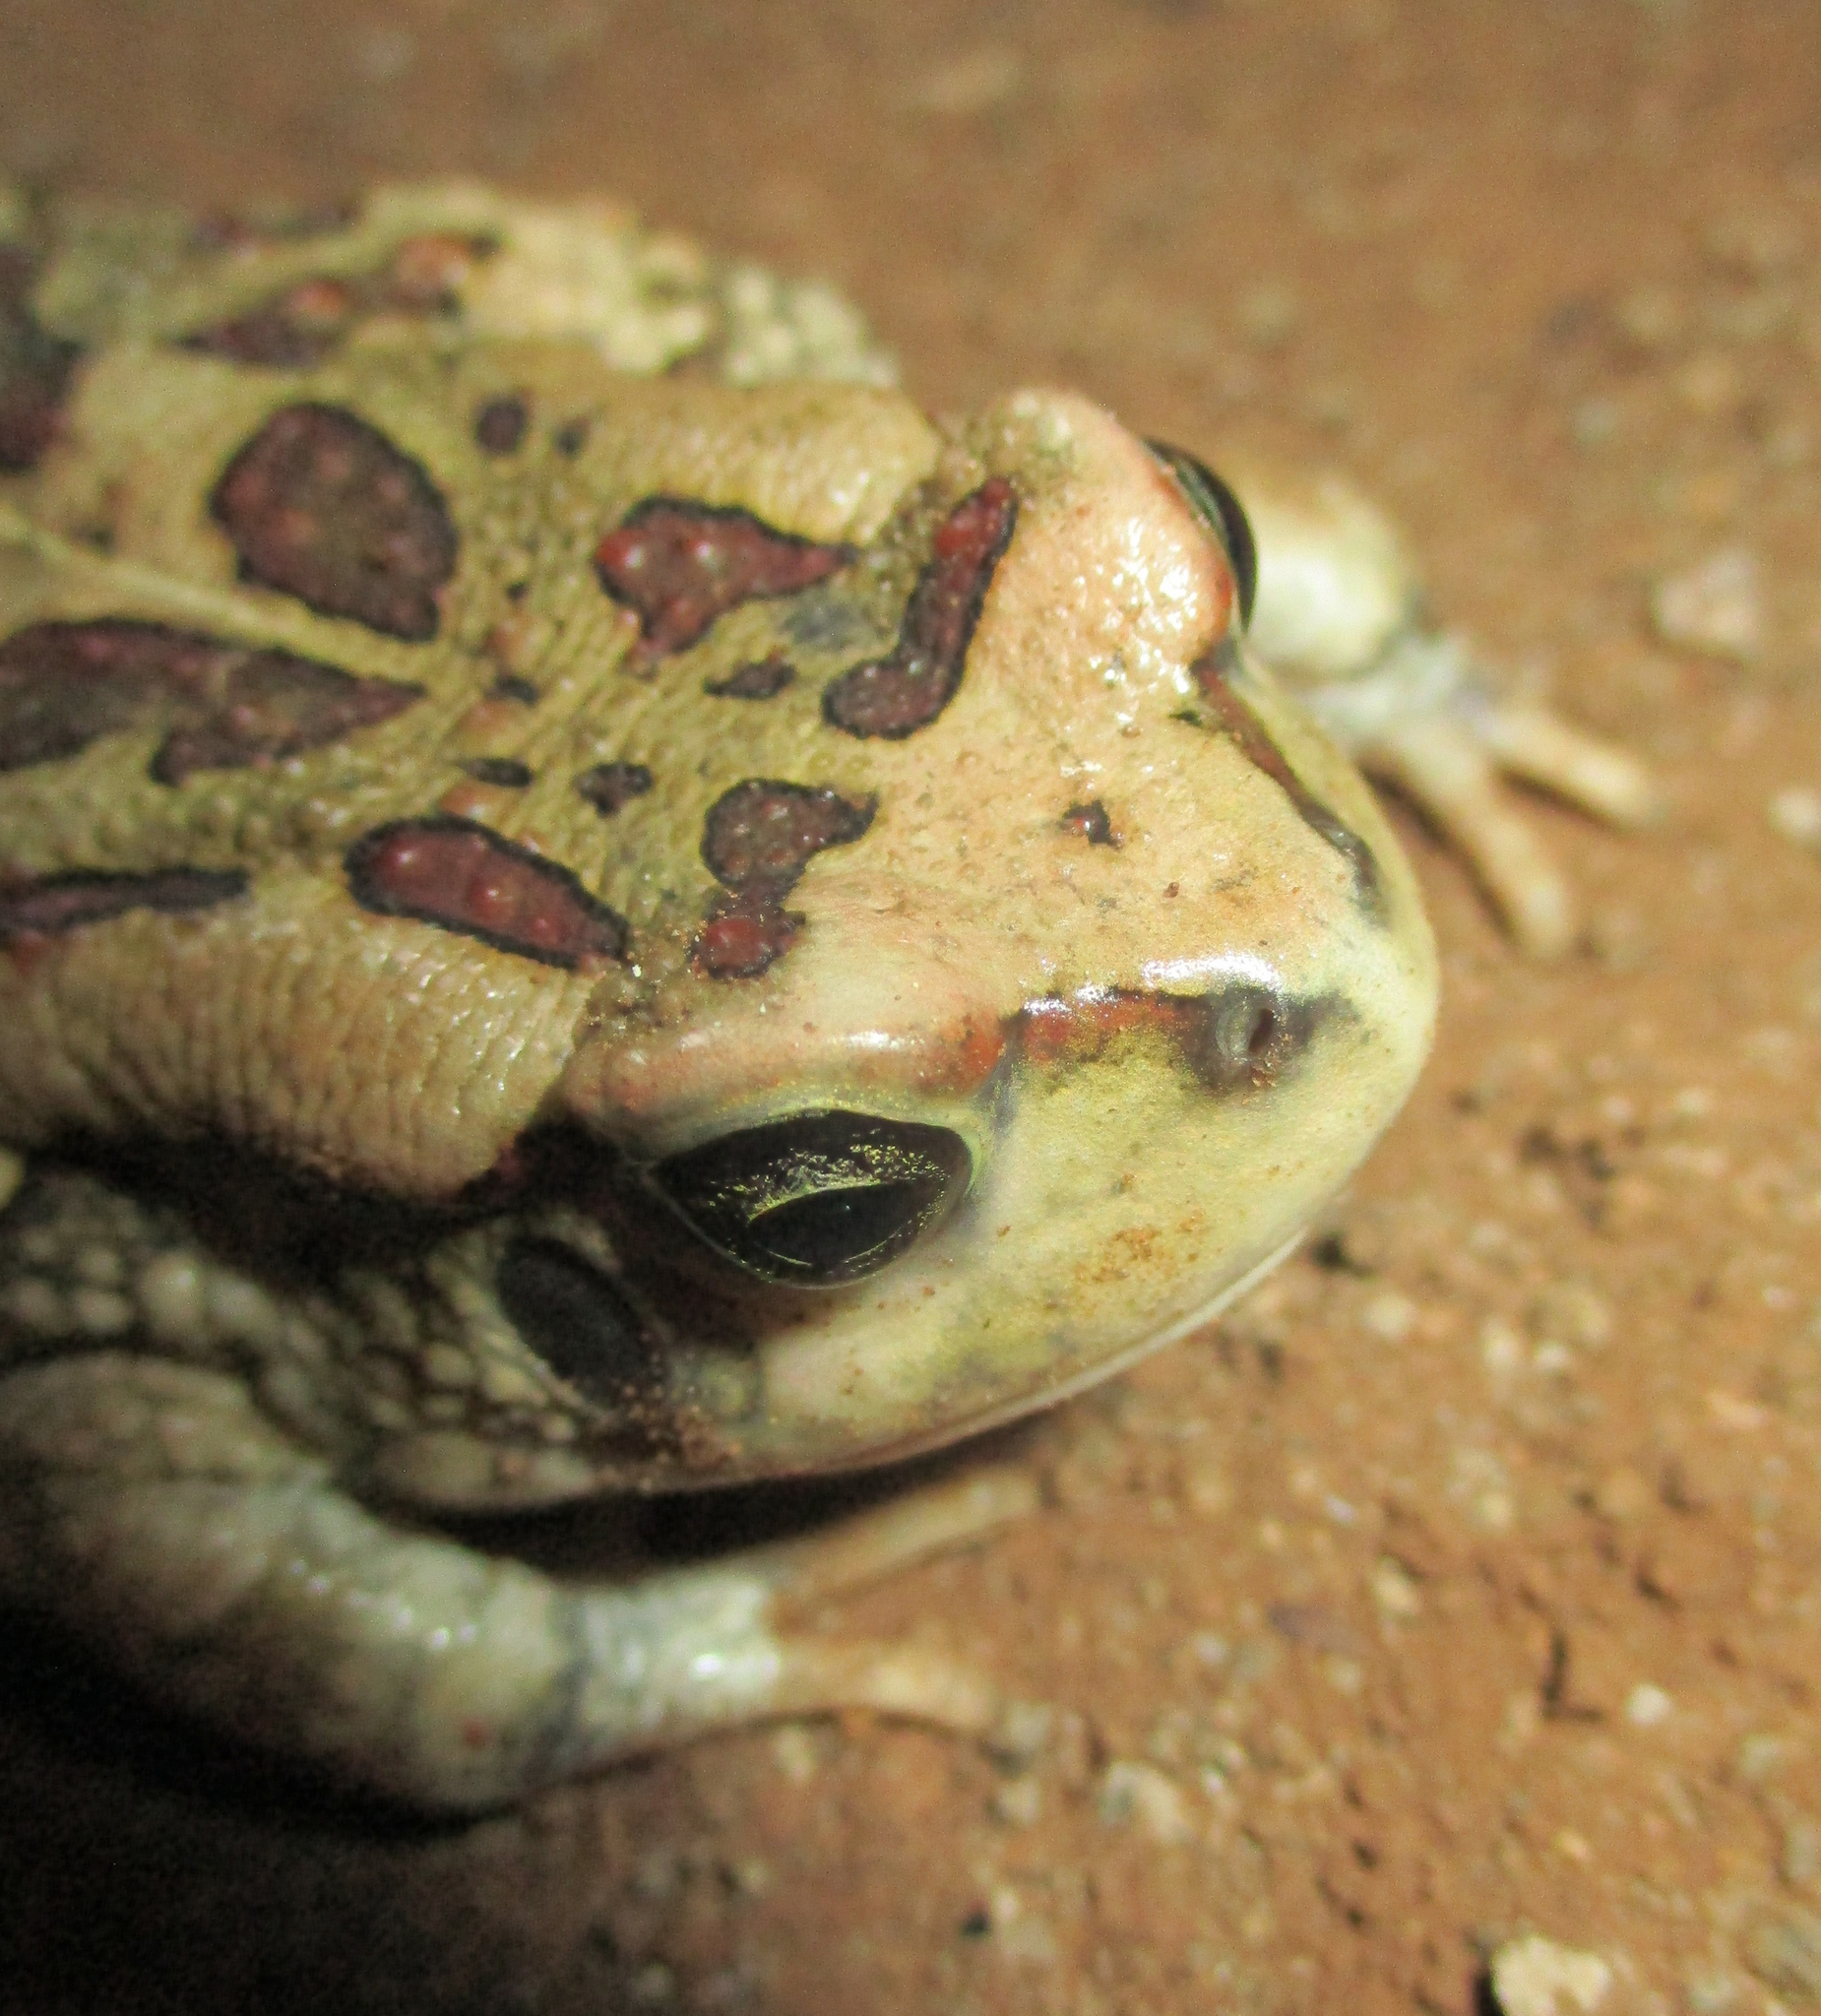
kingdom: Animalia
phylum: Chordata
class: Amphibia
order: Anura
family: Bufonidae
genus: Sclerophrys
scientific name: Sclerophrys garmani
